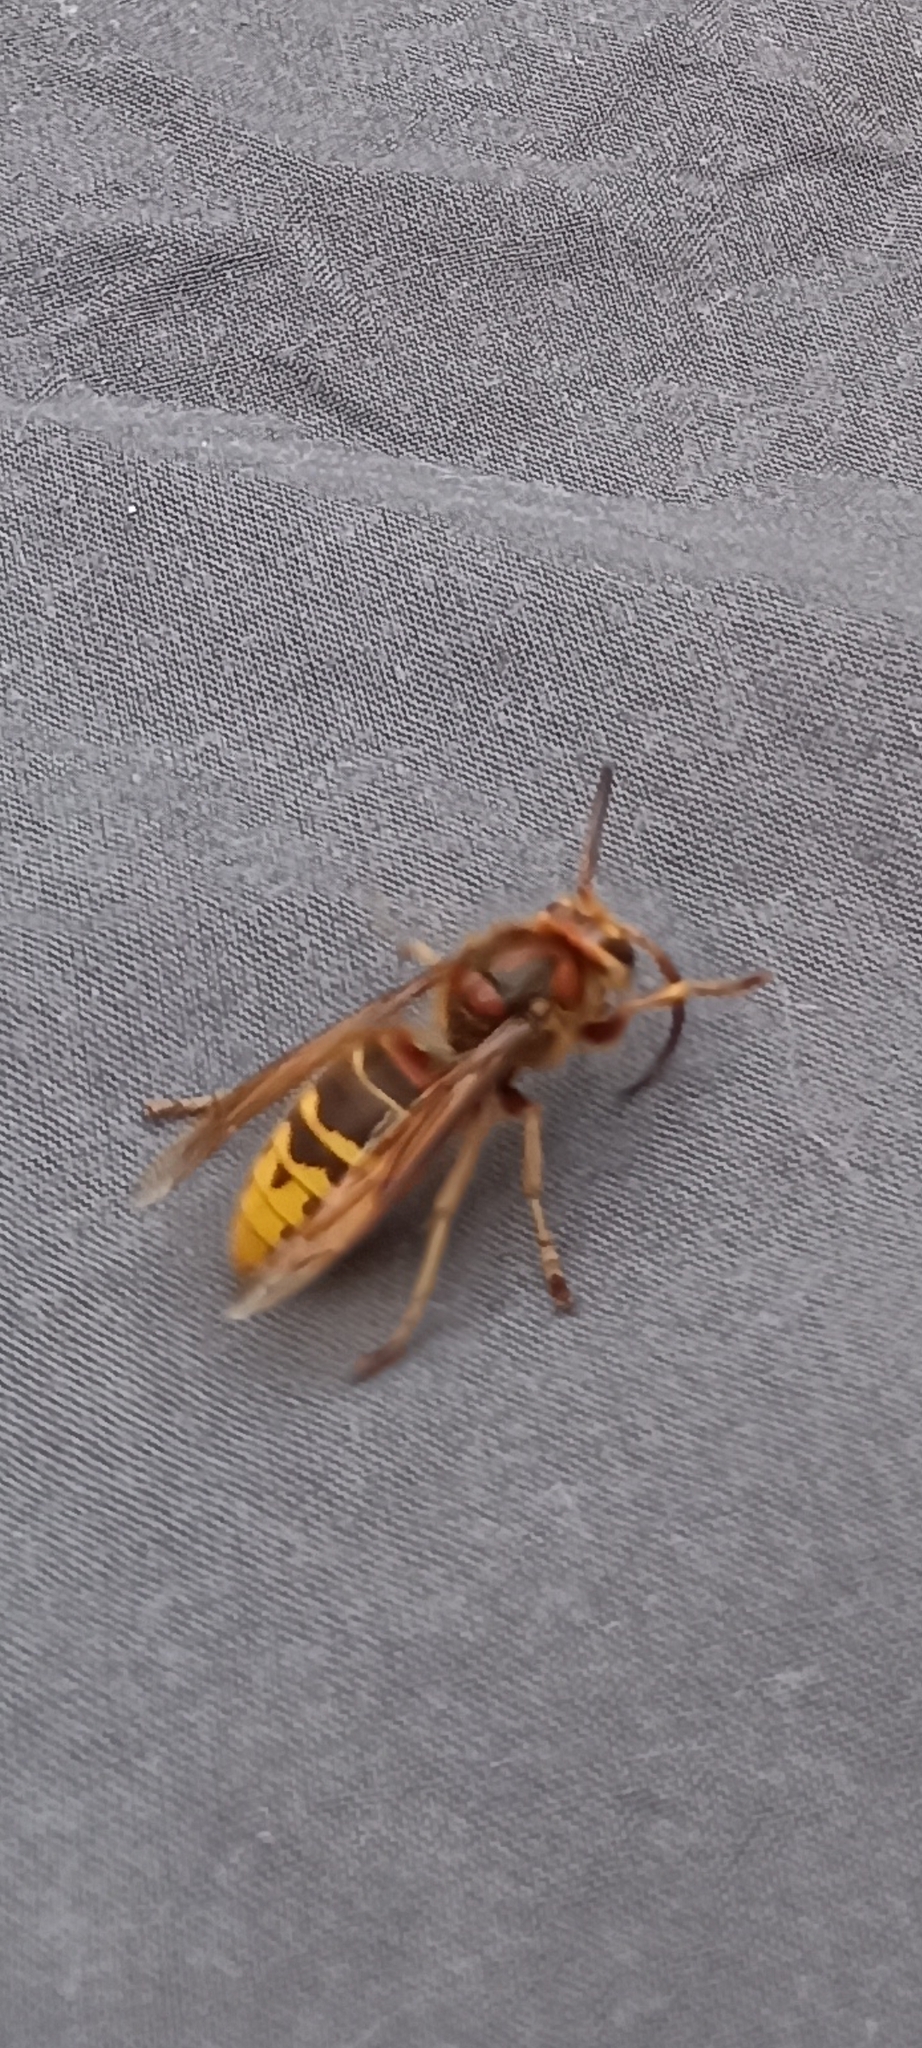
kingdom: Animalia
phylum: Arthropoda
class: Insecta
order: Hymenoptera
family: Vespidae
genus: Vespa
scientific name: Vespa crabro
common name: Hornet
